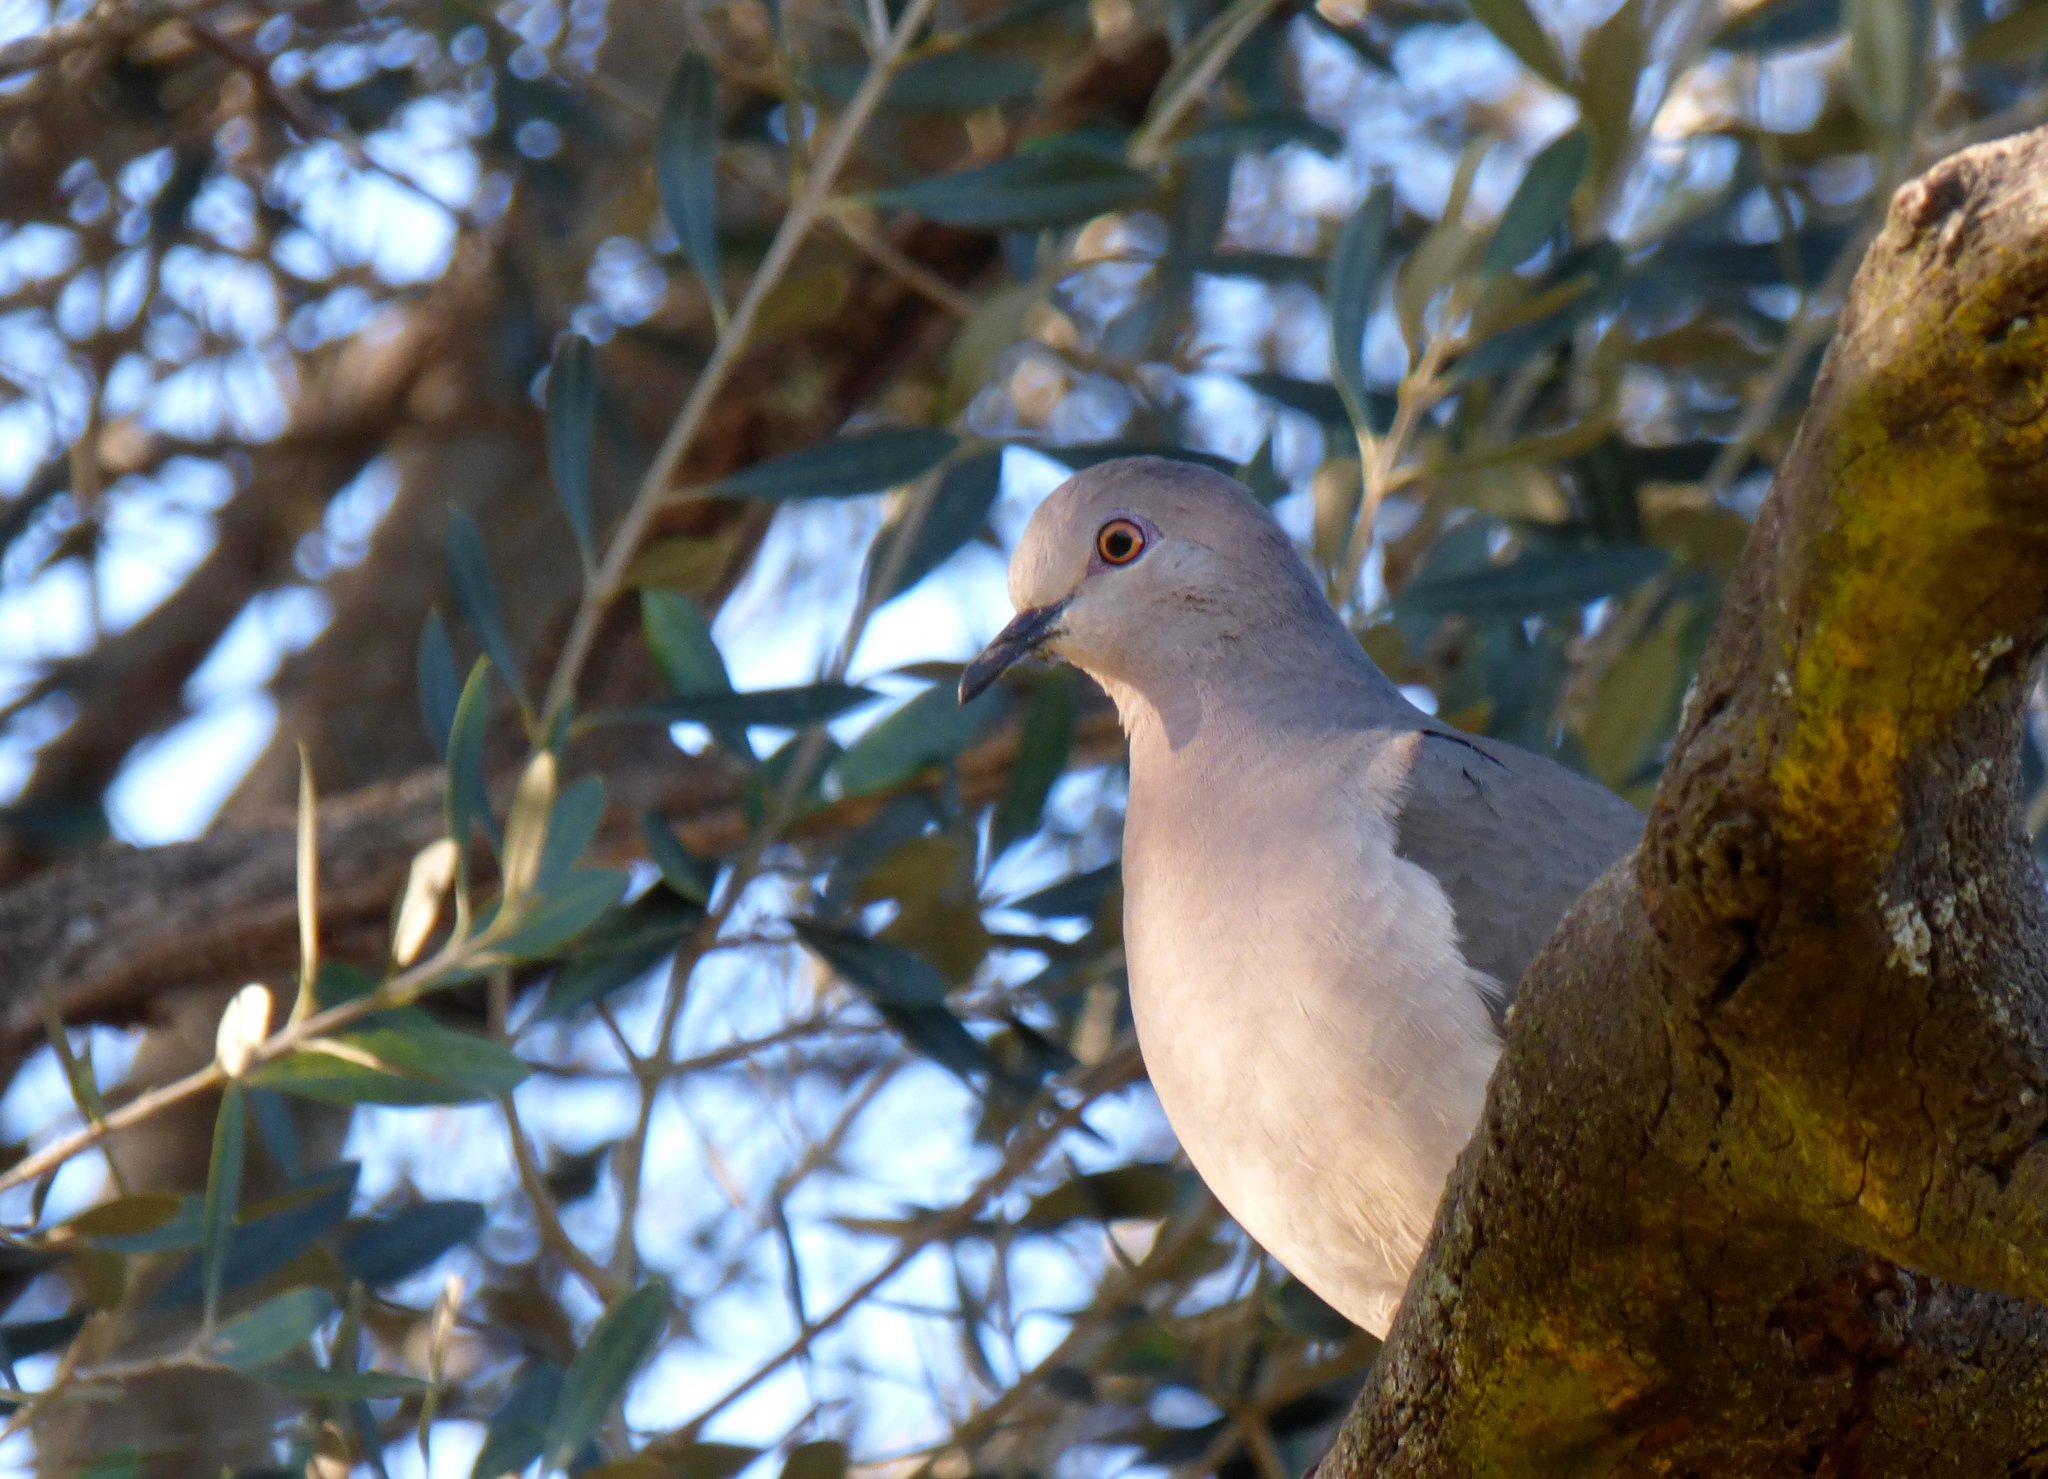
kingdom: Animalia
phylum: Chordata
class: Aves
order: Columbiformes
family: Columbidae
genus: Leptotila
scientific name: Leptotila verreauxi
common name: White-tipped dove
